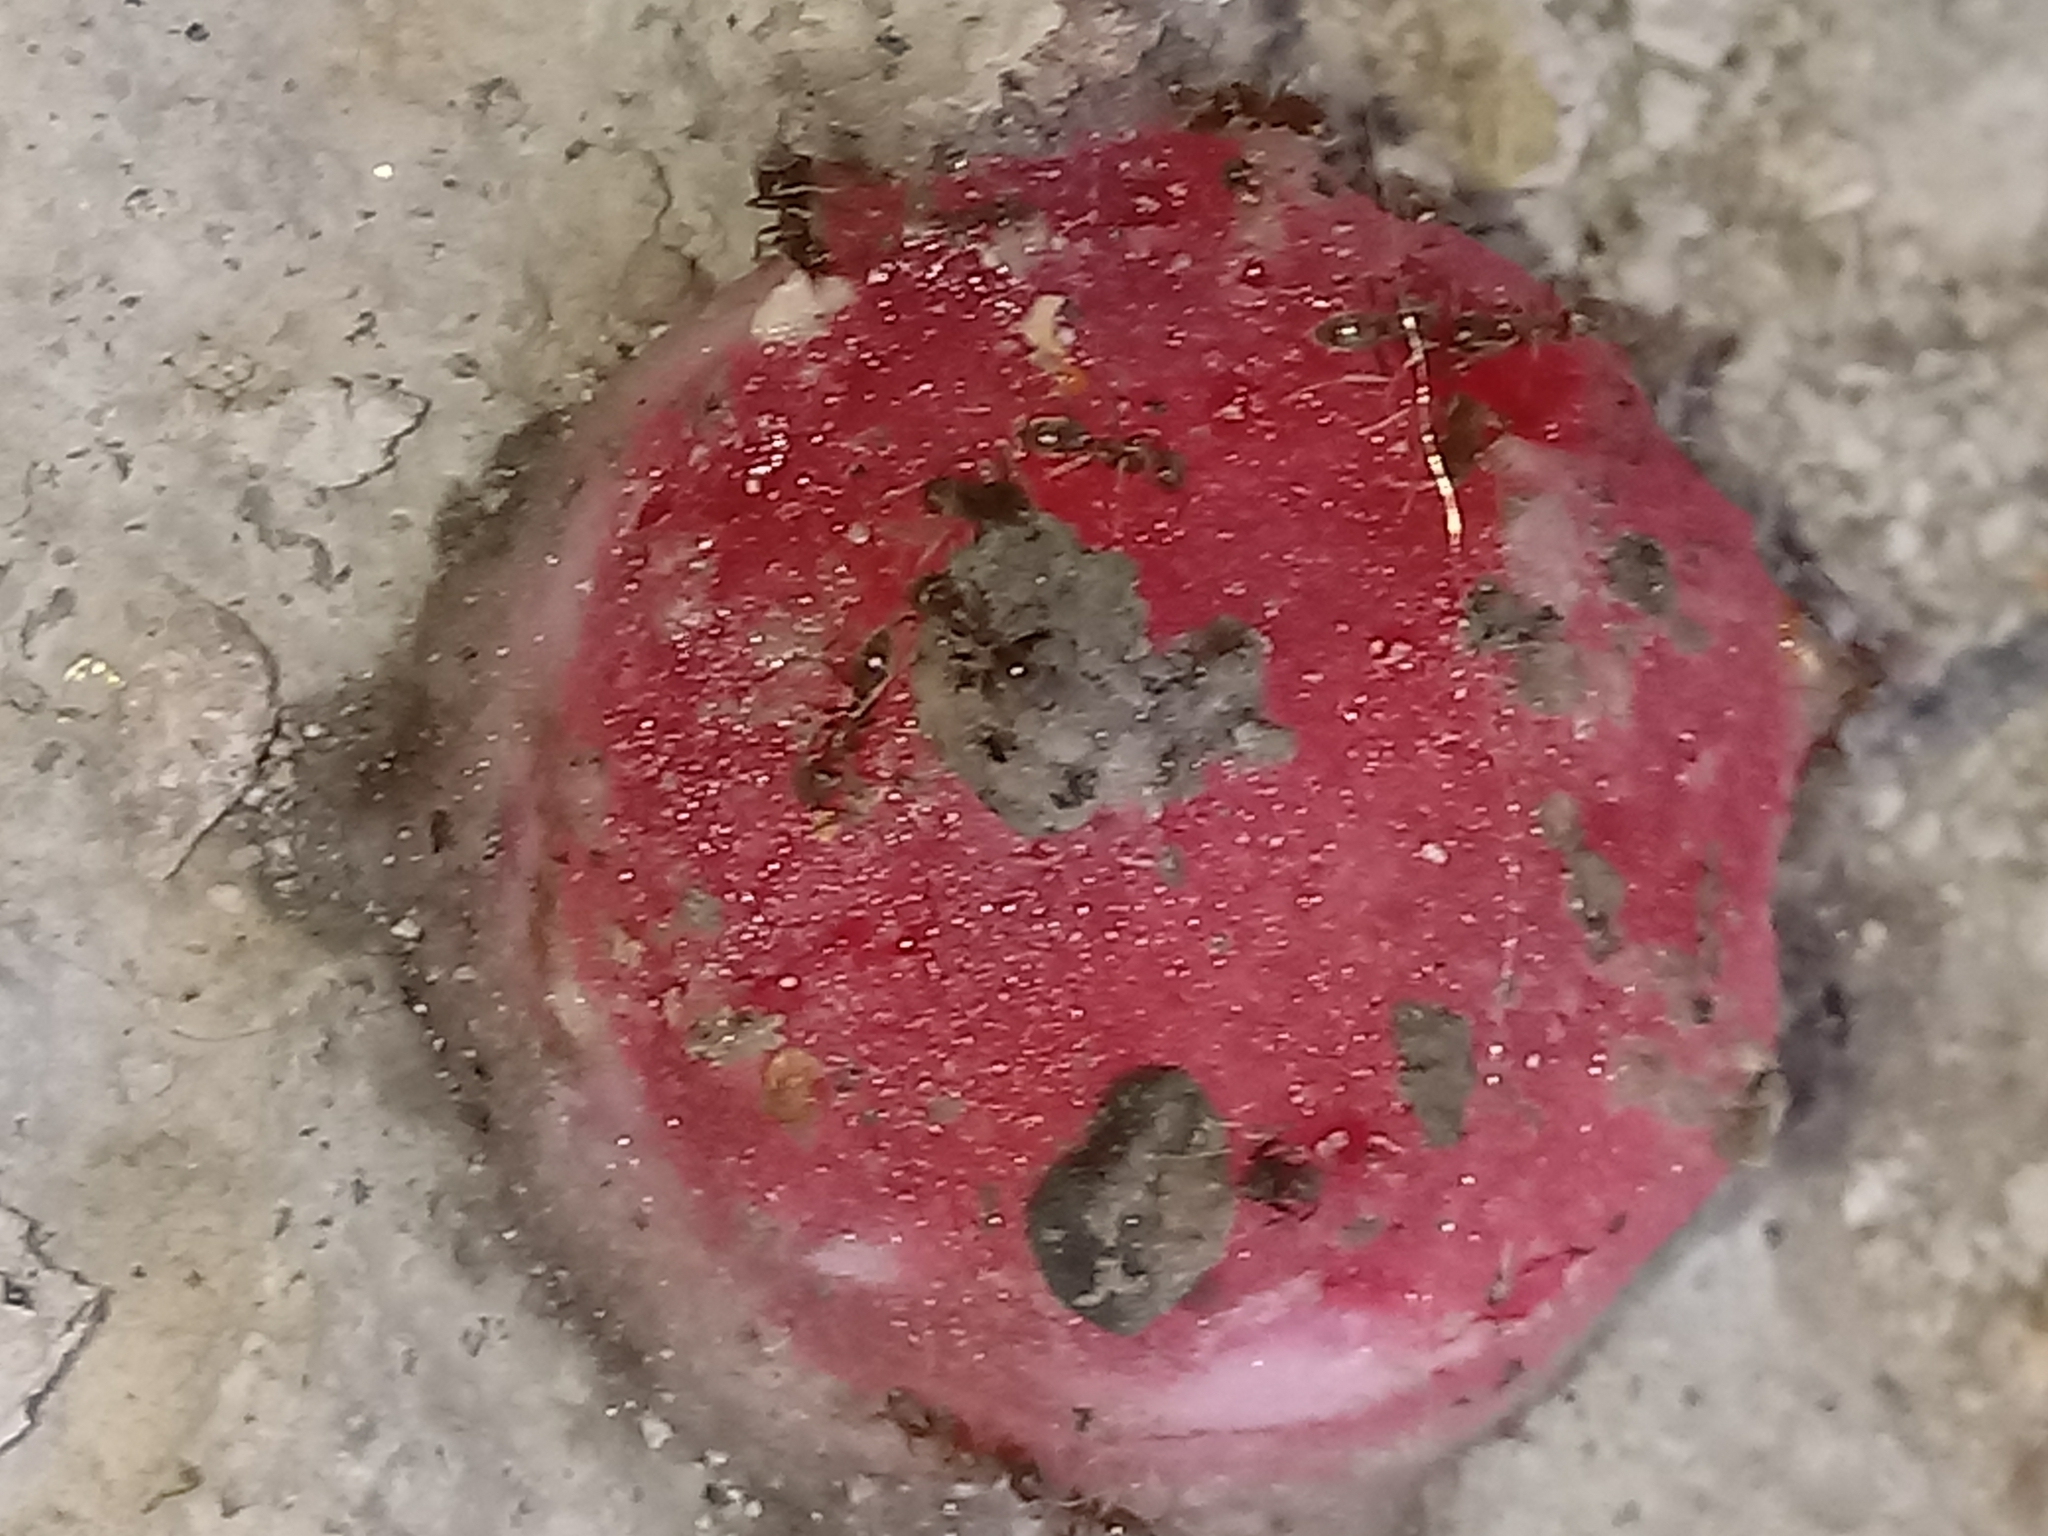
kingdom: Animalia
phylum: Arthropoda
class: Insecta
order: Hymenoptera
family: Formicidae
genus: Linepithema
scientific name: Linepithema humile
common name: Argentine ant
